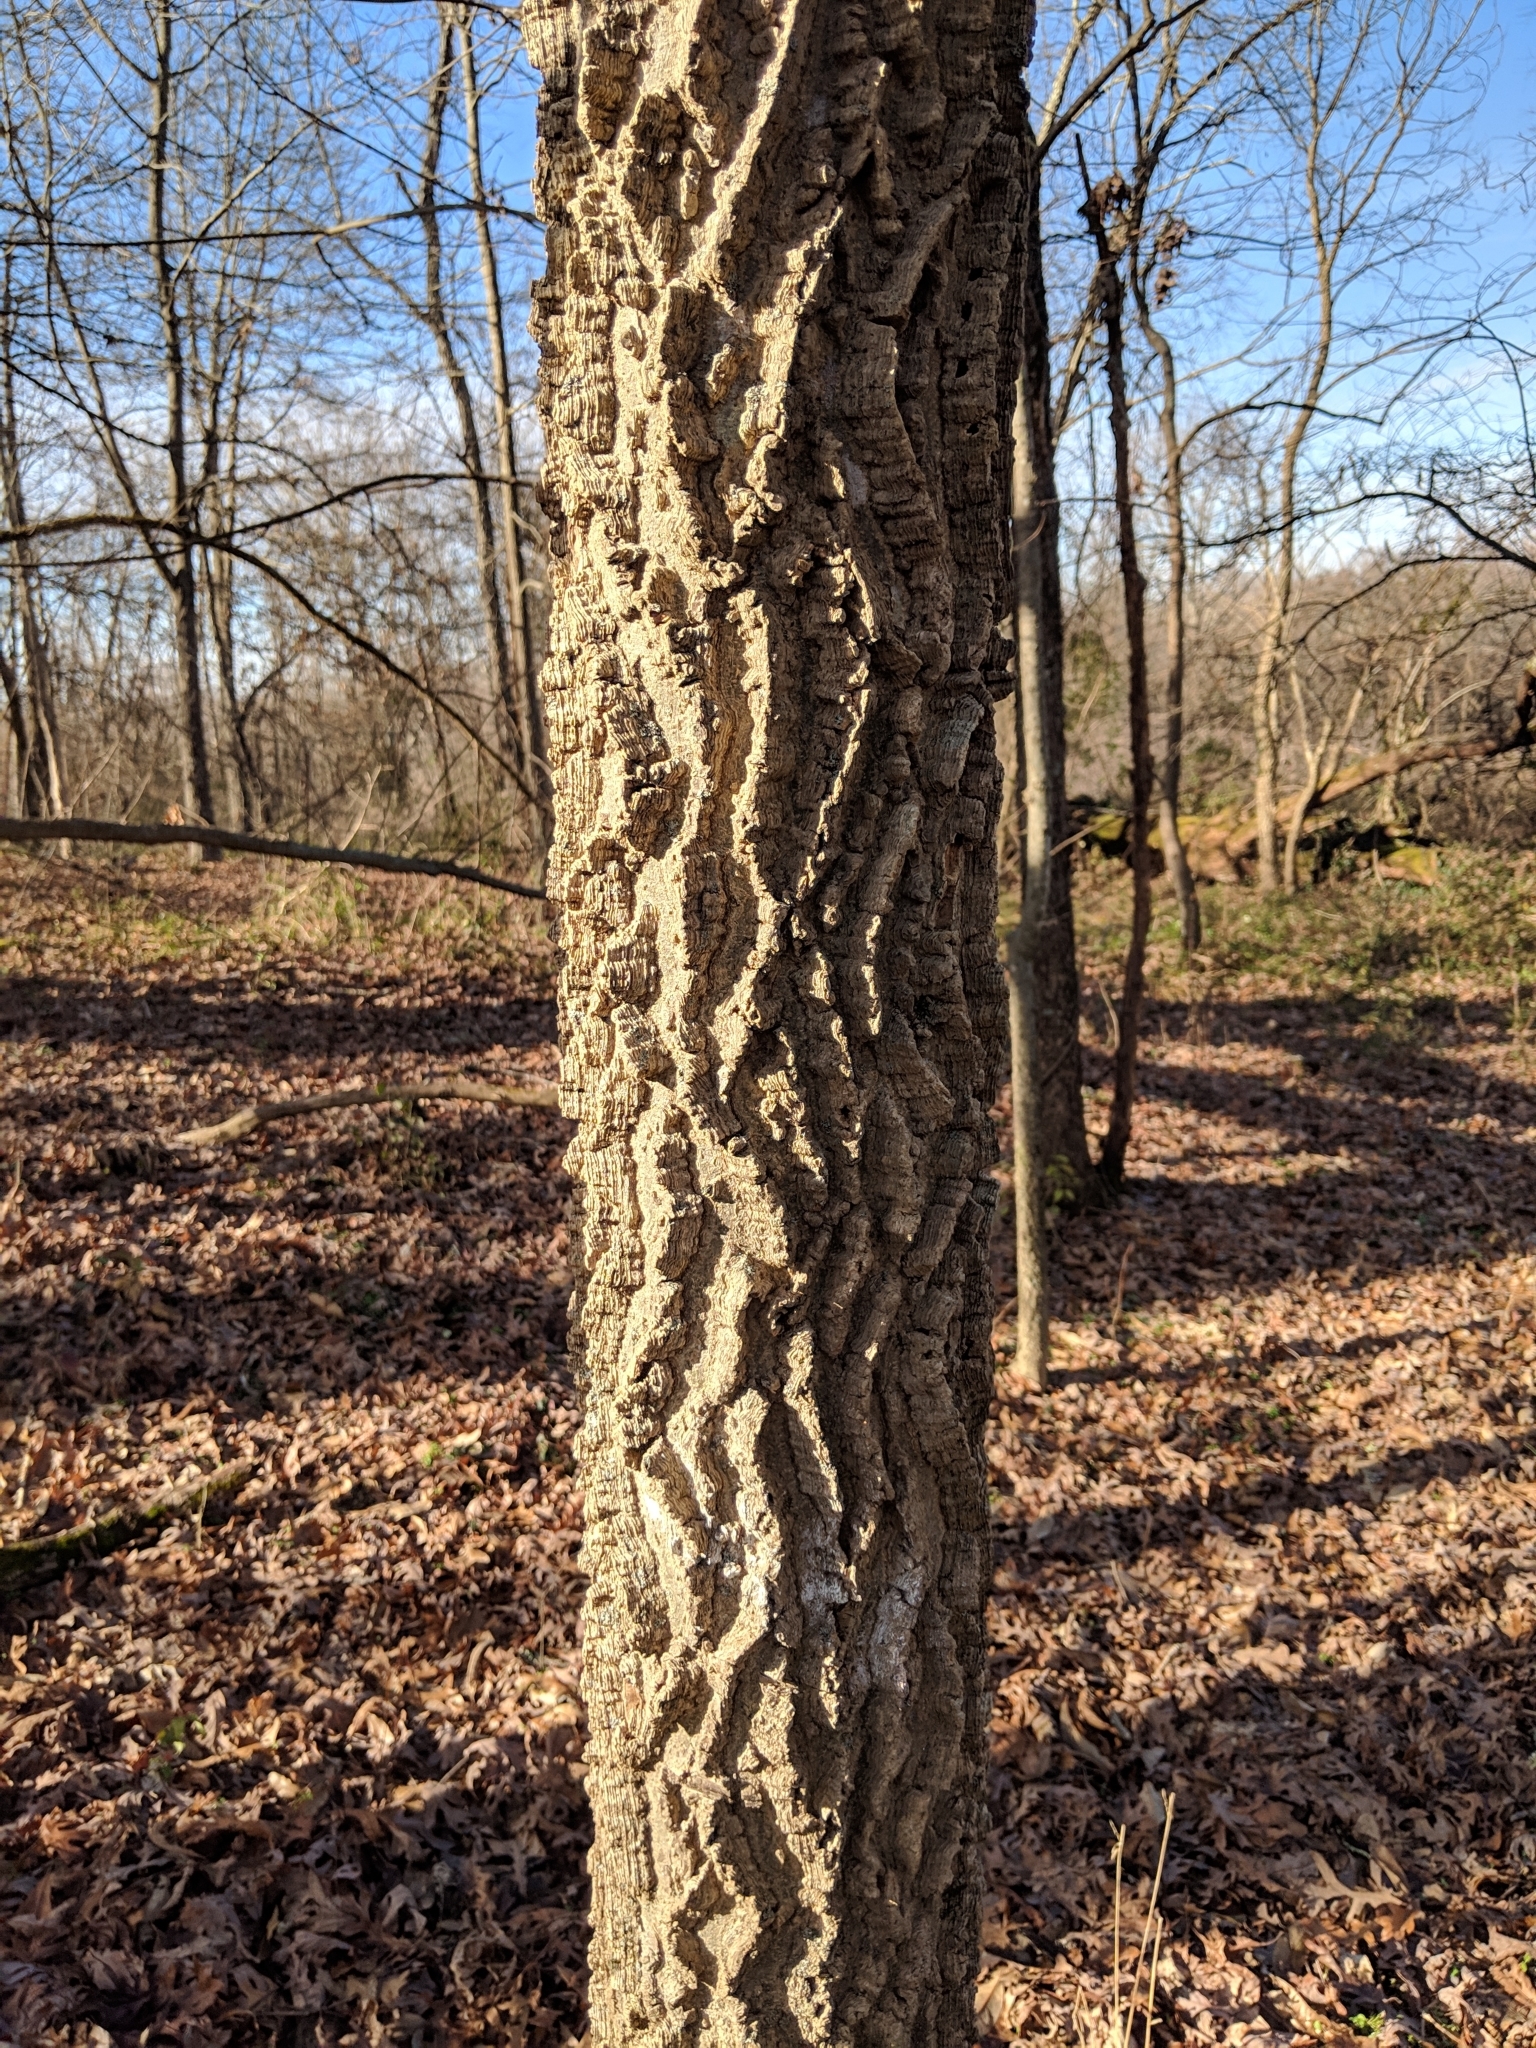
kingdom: Plantae
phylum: Tracheophyta
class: Magnoliopsida
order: Rosales
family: Cannabaceae
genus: Celtis
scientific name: Celtis occidentalis
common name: Common hackberry
